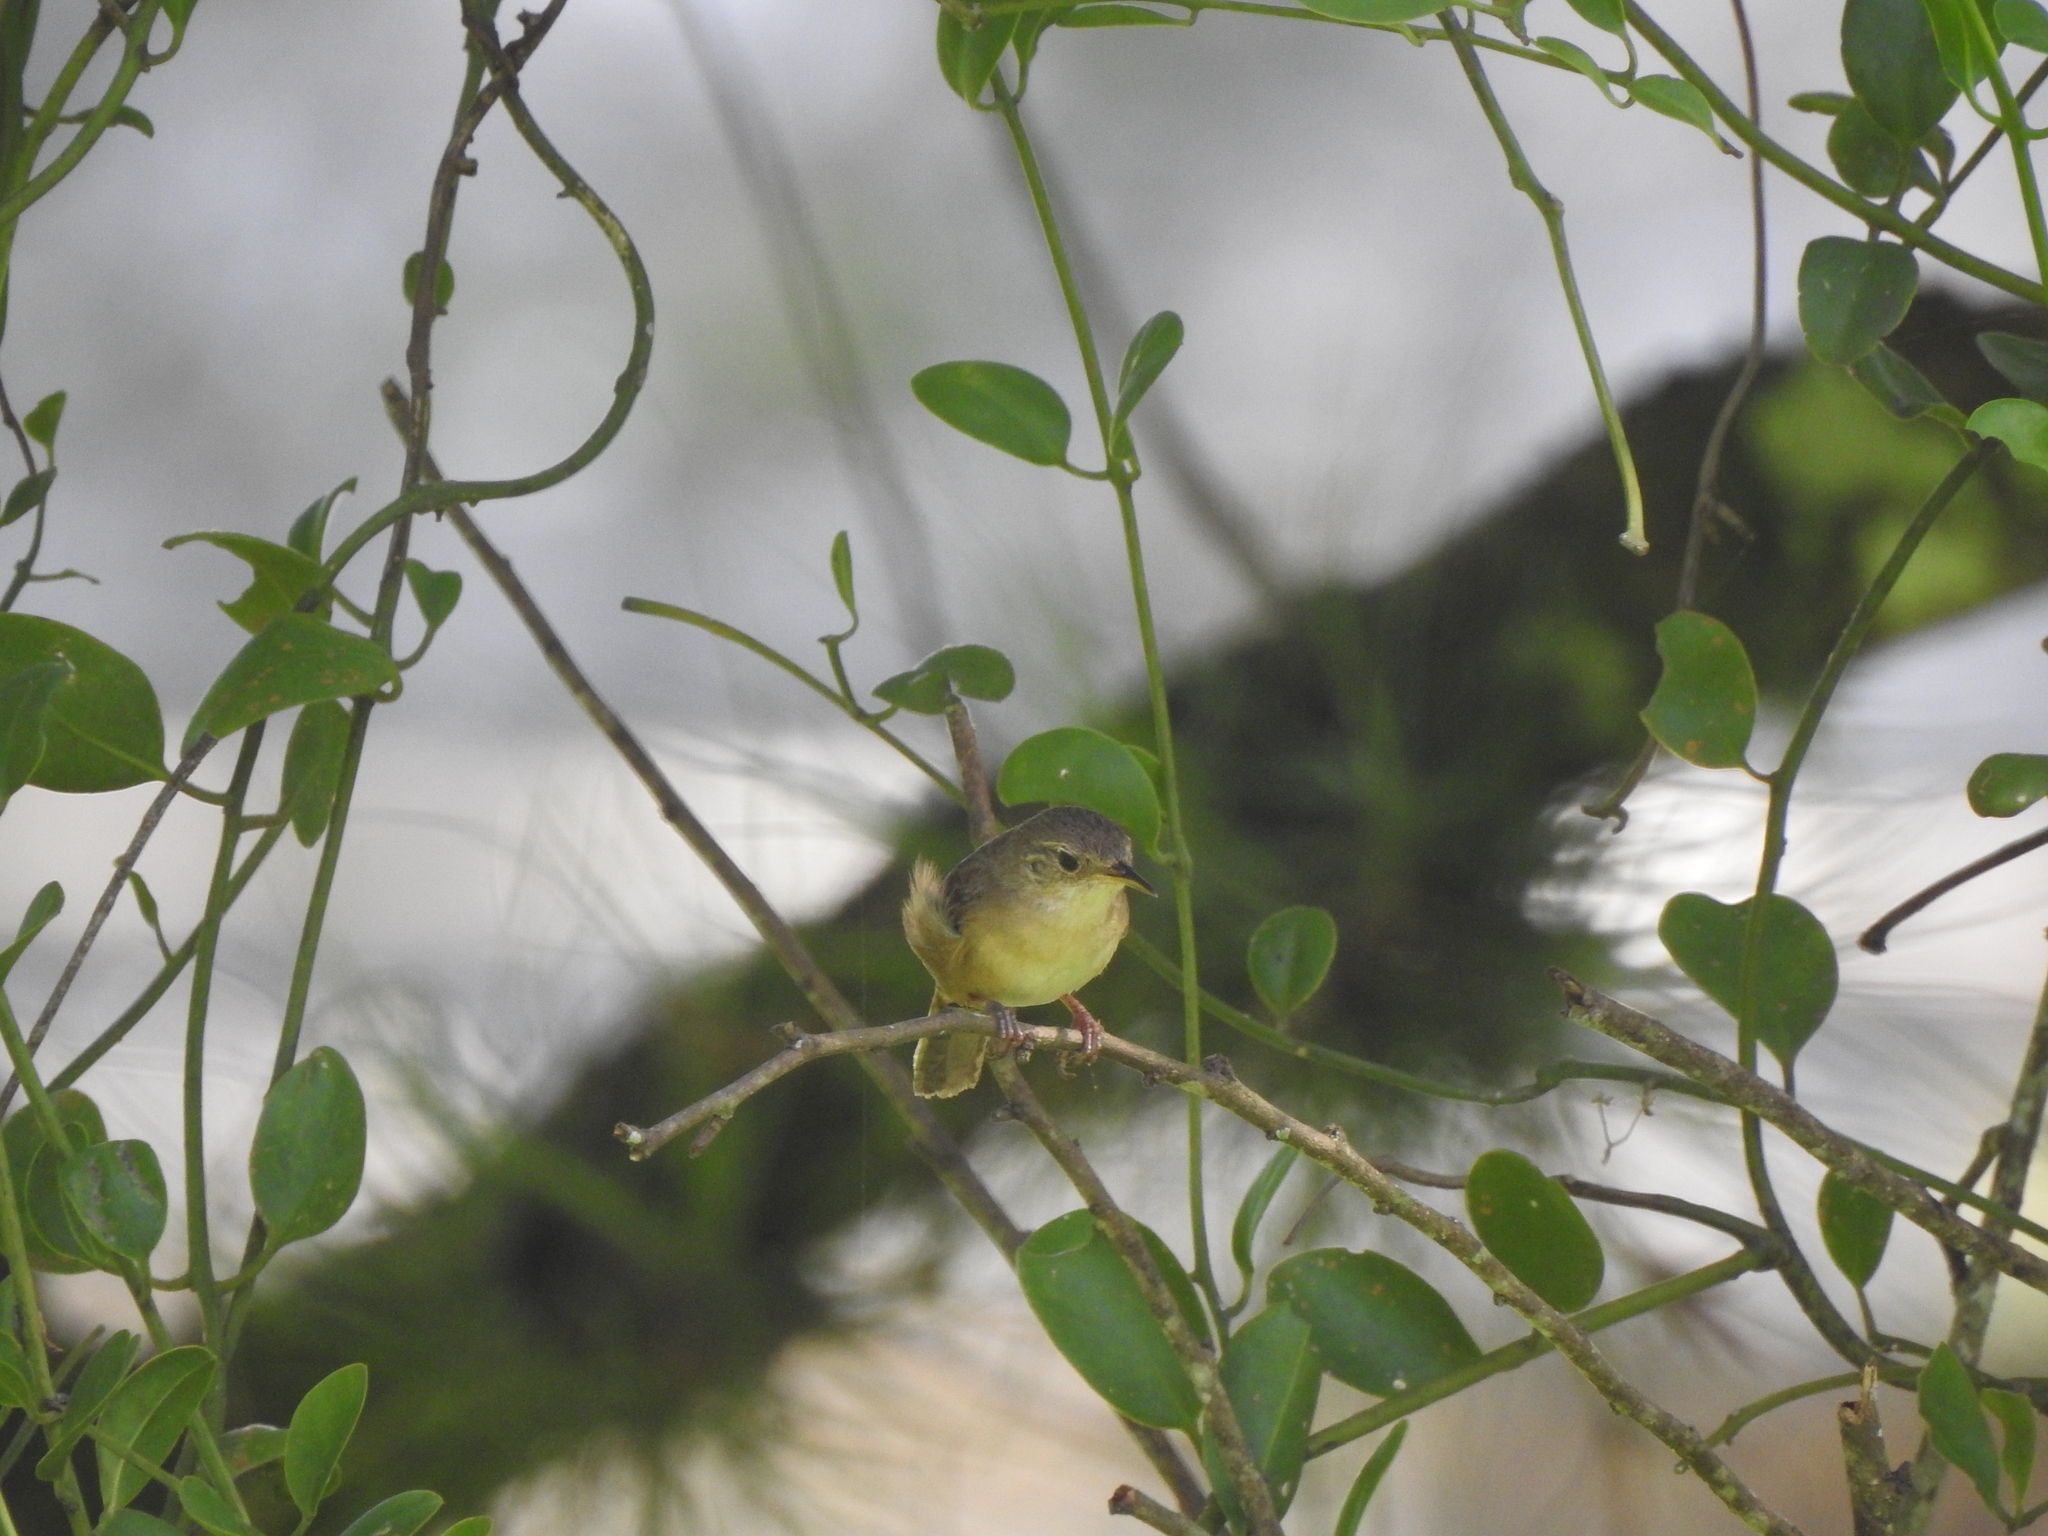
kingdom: Animalia
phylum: Chordata
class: Aves
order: Passeriformes
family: Thraupidae
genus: Coereba
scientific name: Coereba flaveola
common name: Bananaquit
